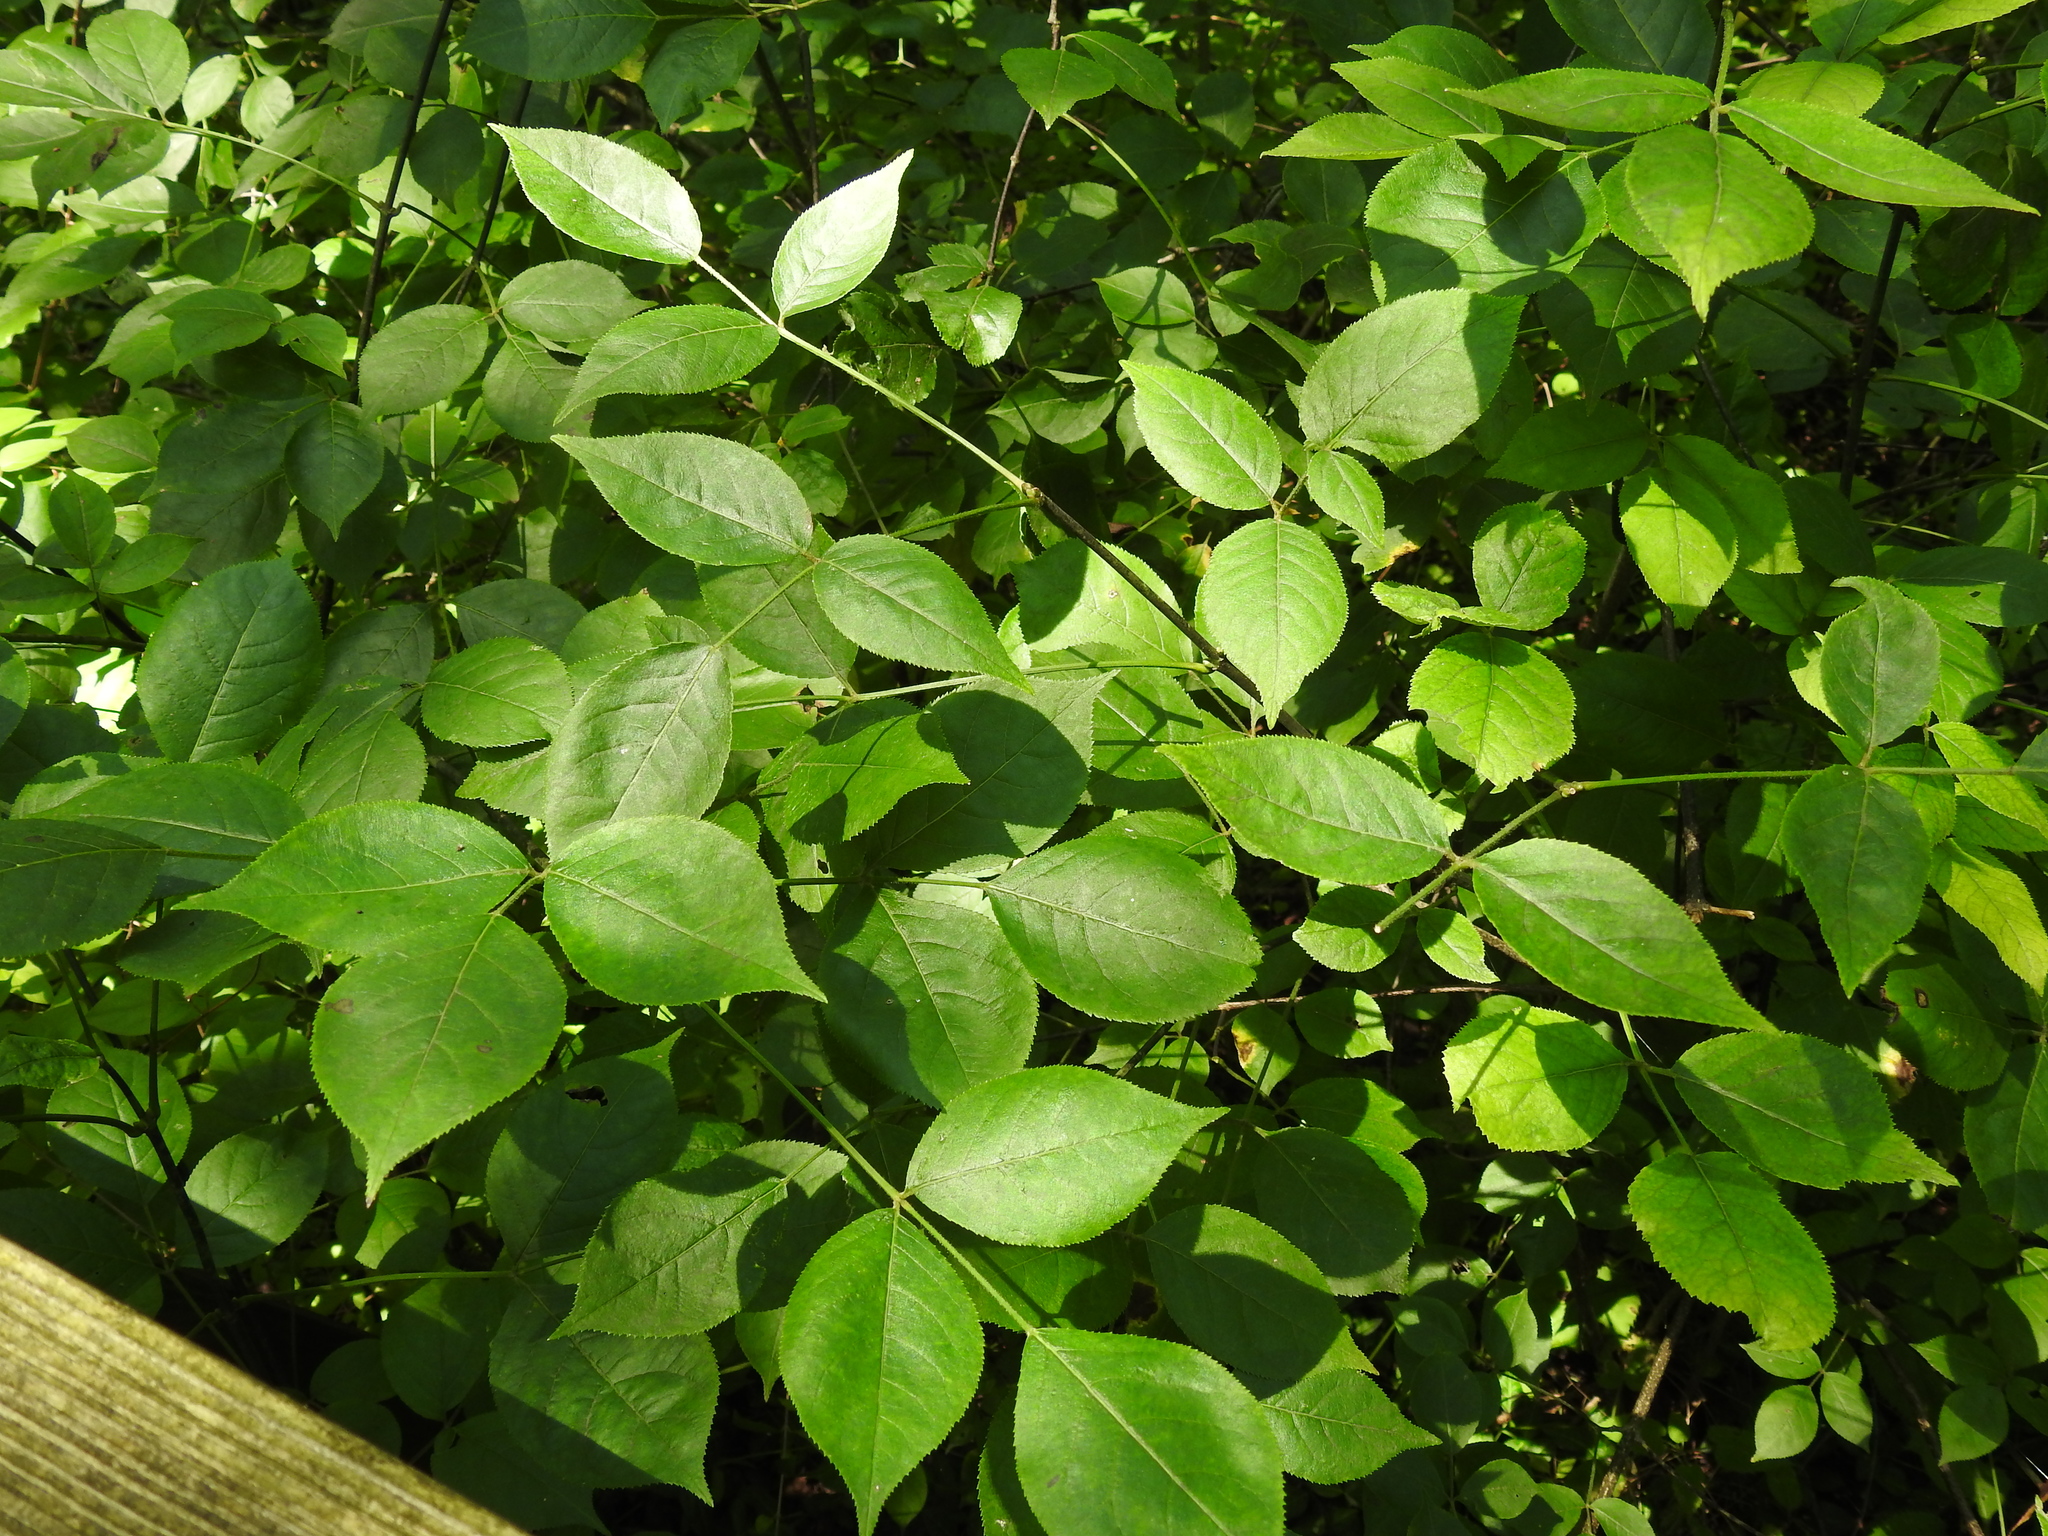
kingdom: Plantae
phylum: Tracheophyta
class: Magnoliopsida
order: Crossosomatales
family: Staphyleaceae
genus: Staphylea
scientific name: Staphylea trifolia
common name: American bladdernut
